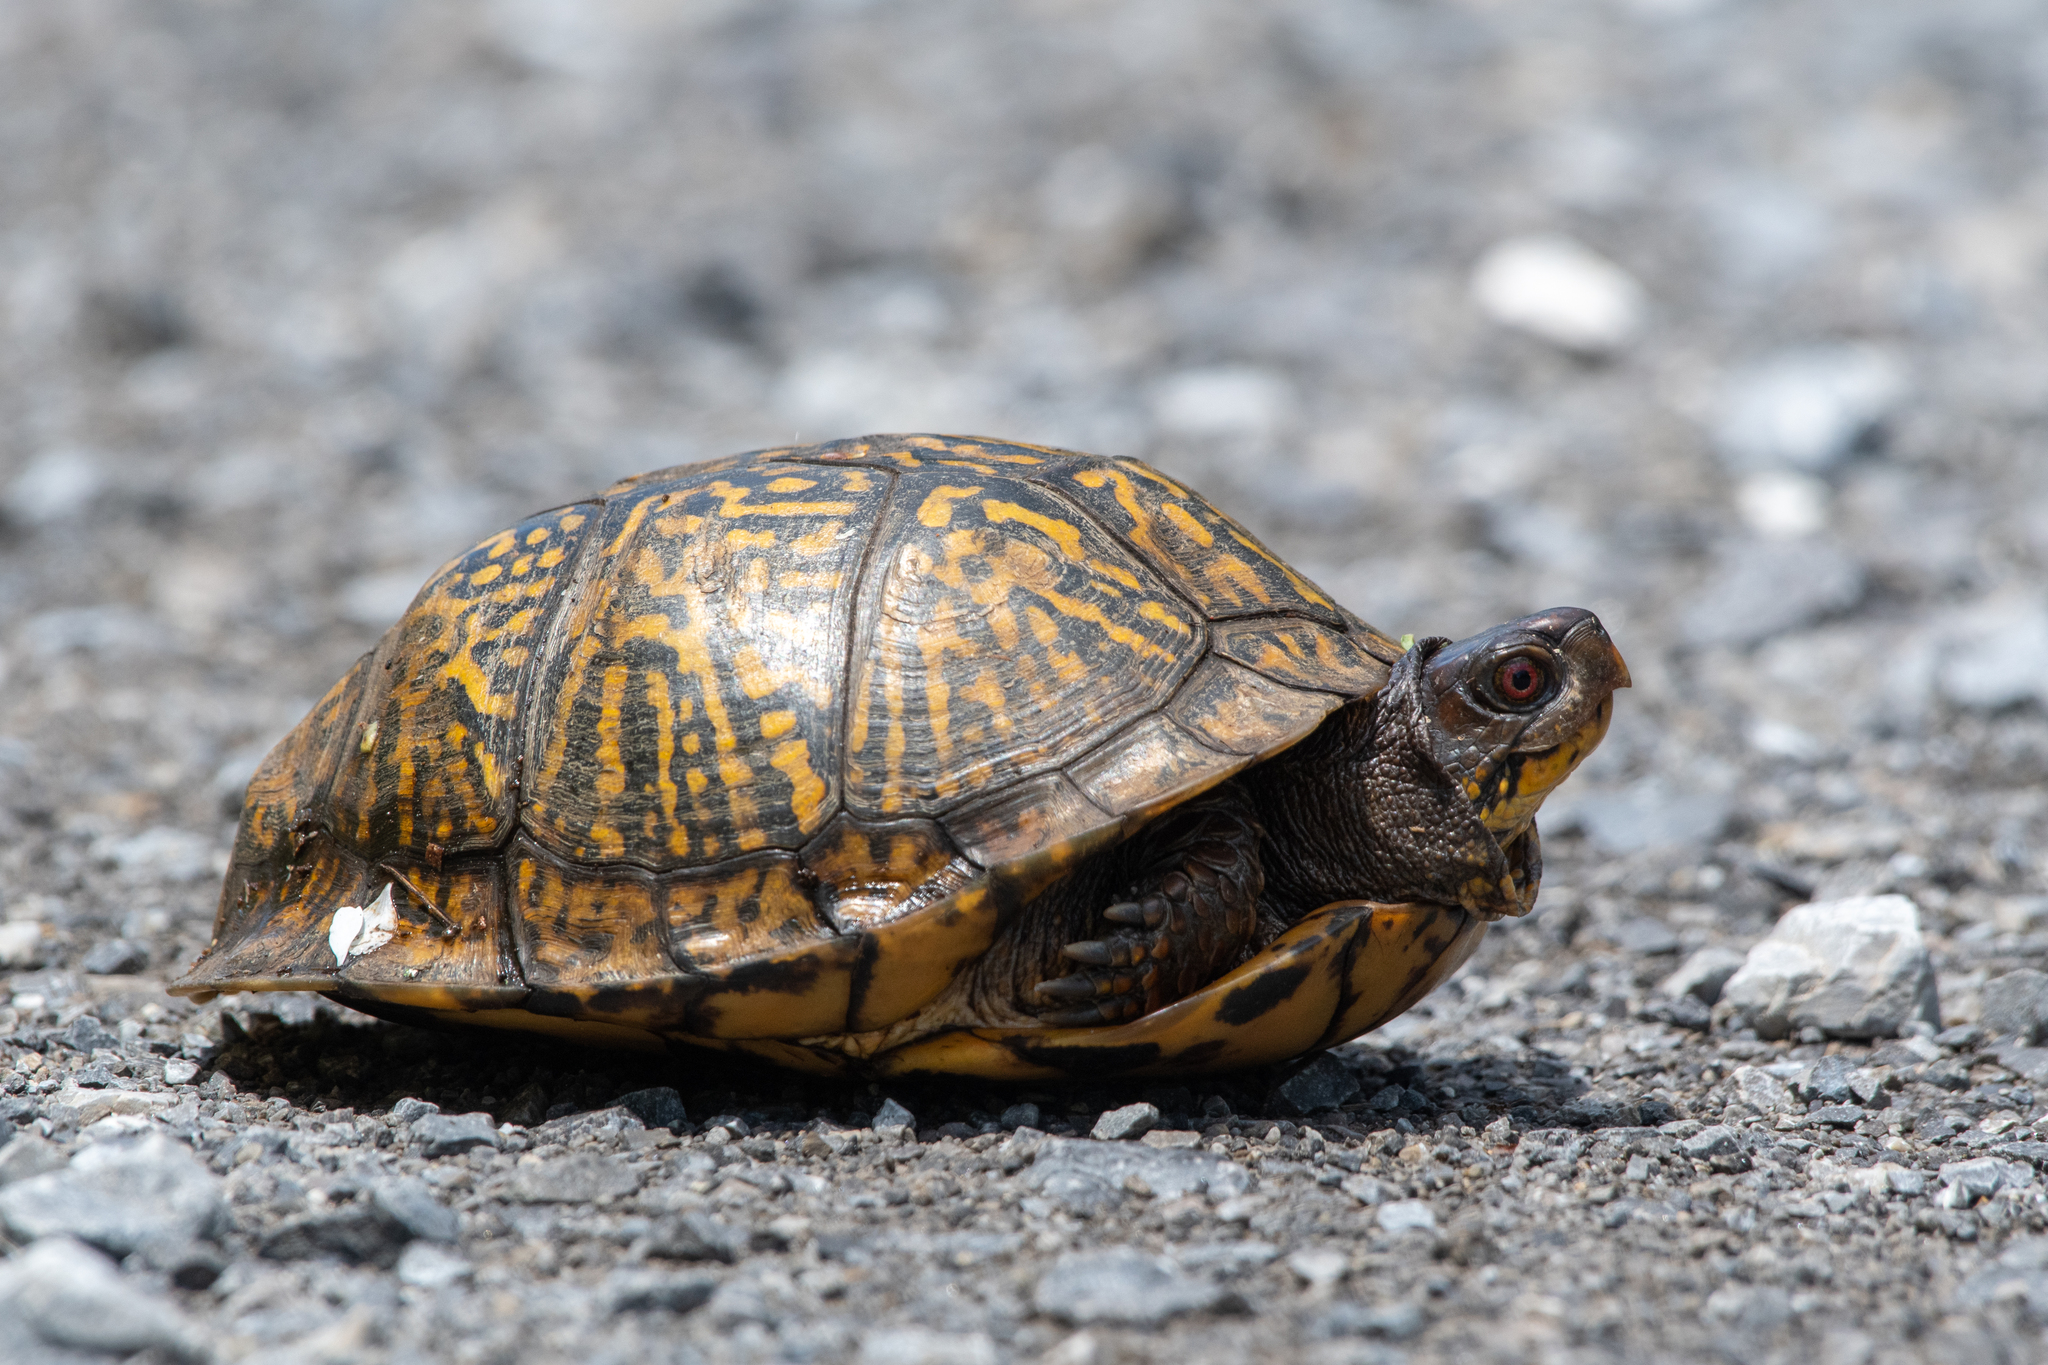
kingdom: Animalia
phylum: Chordata
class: Testudines
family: Emydidae
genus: Terrapene
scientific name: Terrapene carolina
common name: Common box turtle
